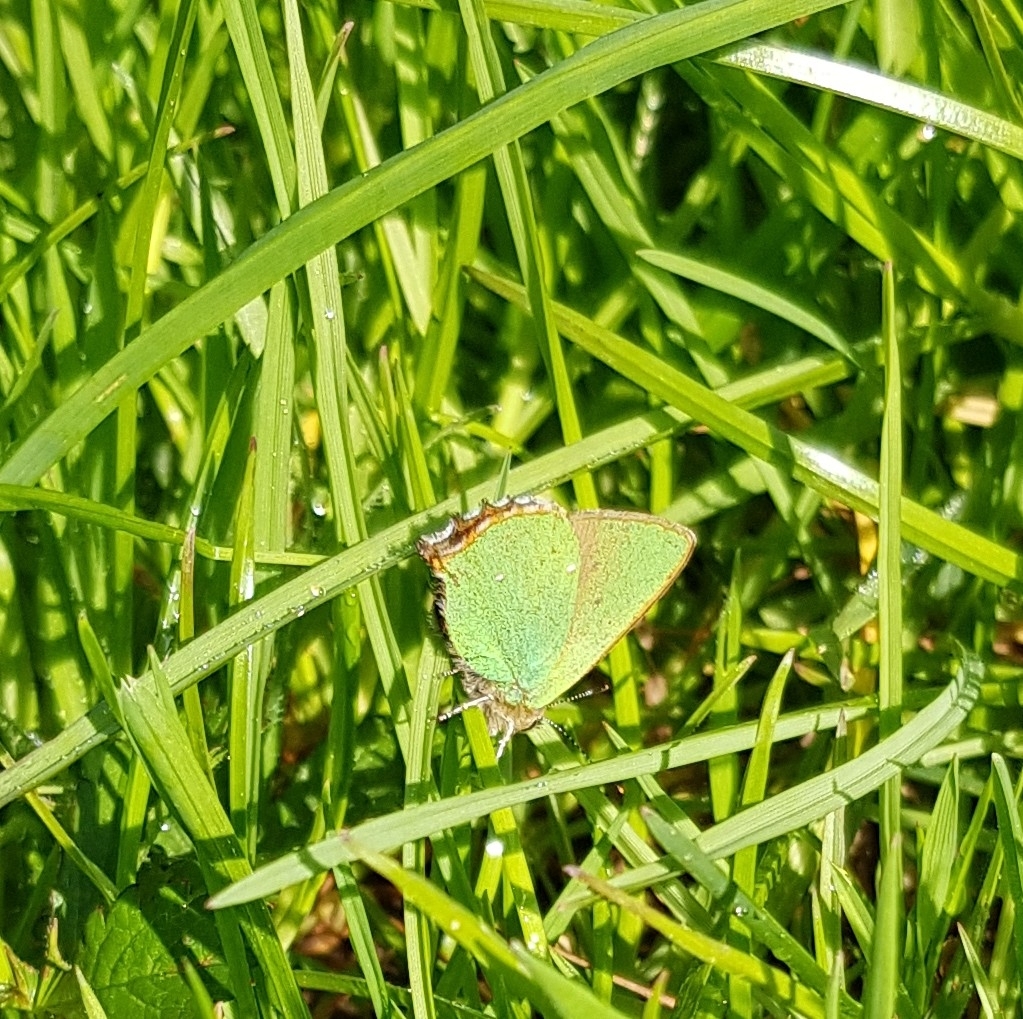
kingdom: Animalia
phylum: Arthropoda
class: Insecta
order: Lepidoptera
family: Lycaenidae
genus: Callophrys
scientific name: Callophrys rubi
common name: Green hairstreak
